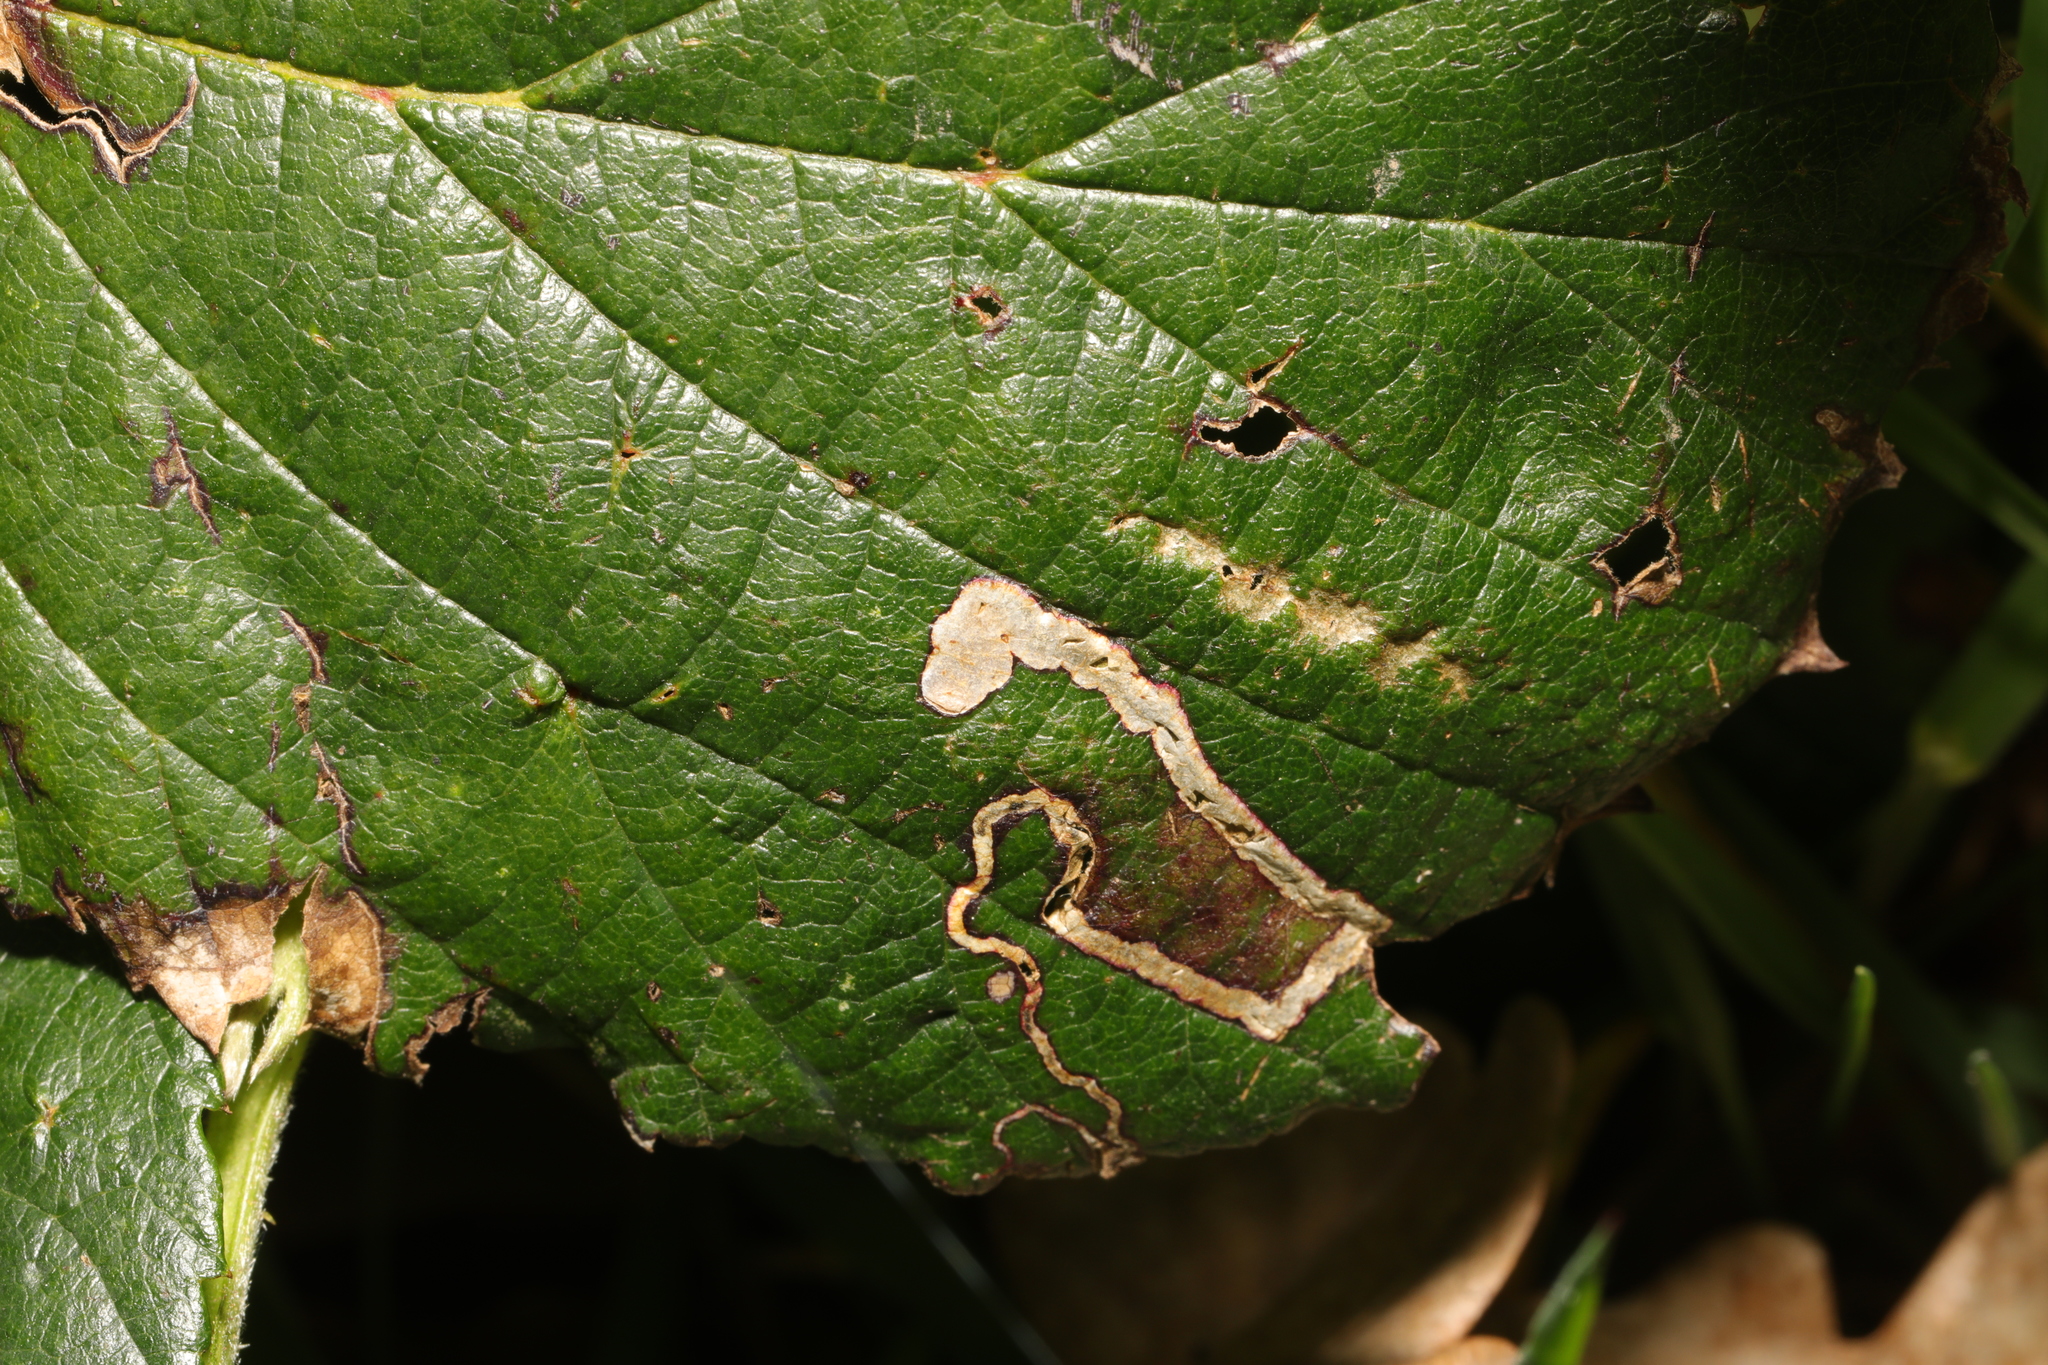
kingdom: Animalia
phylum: Arthropoda
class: Insecta
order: Lepidoptera
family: Nepticulidae
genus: Stigmella
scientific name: Stigmella aurella
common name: Golden pigmy
